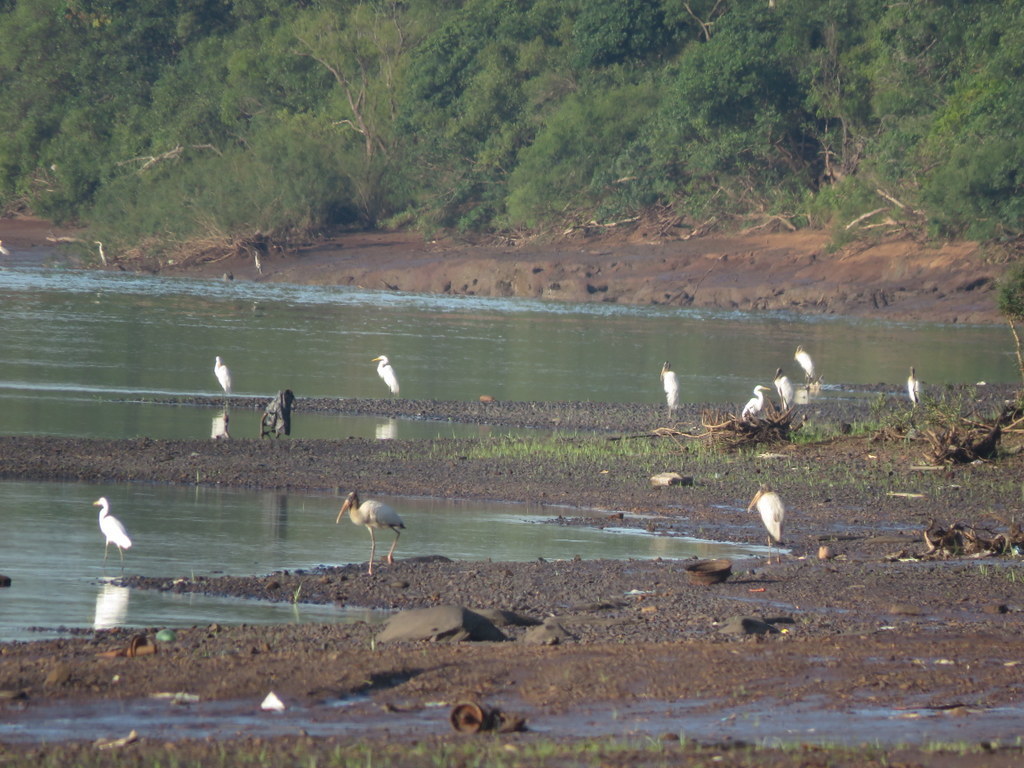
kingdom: Animalia
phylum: Chordata
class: Aves
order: Pelecaniformes
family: Ardeidae
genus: Ardea
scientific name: Ardea alba
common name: Great egret
